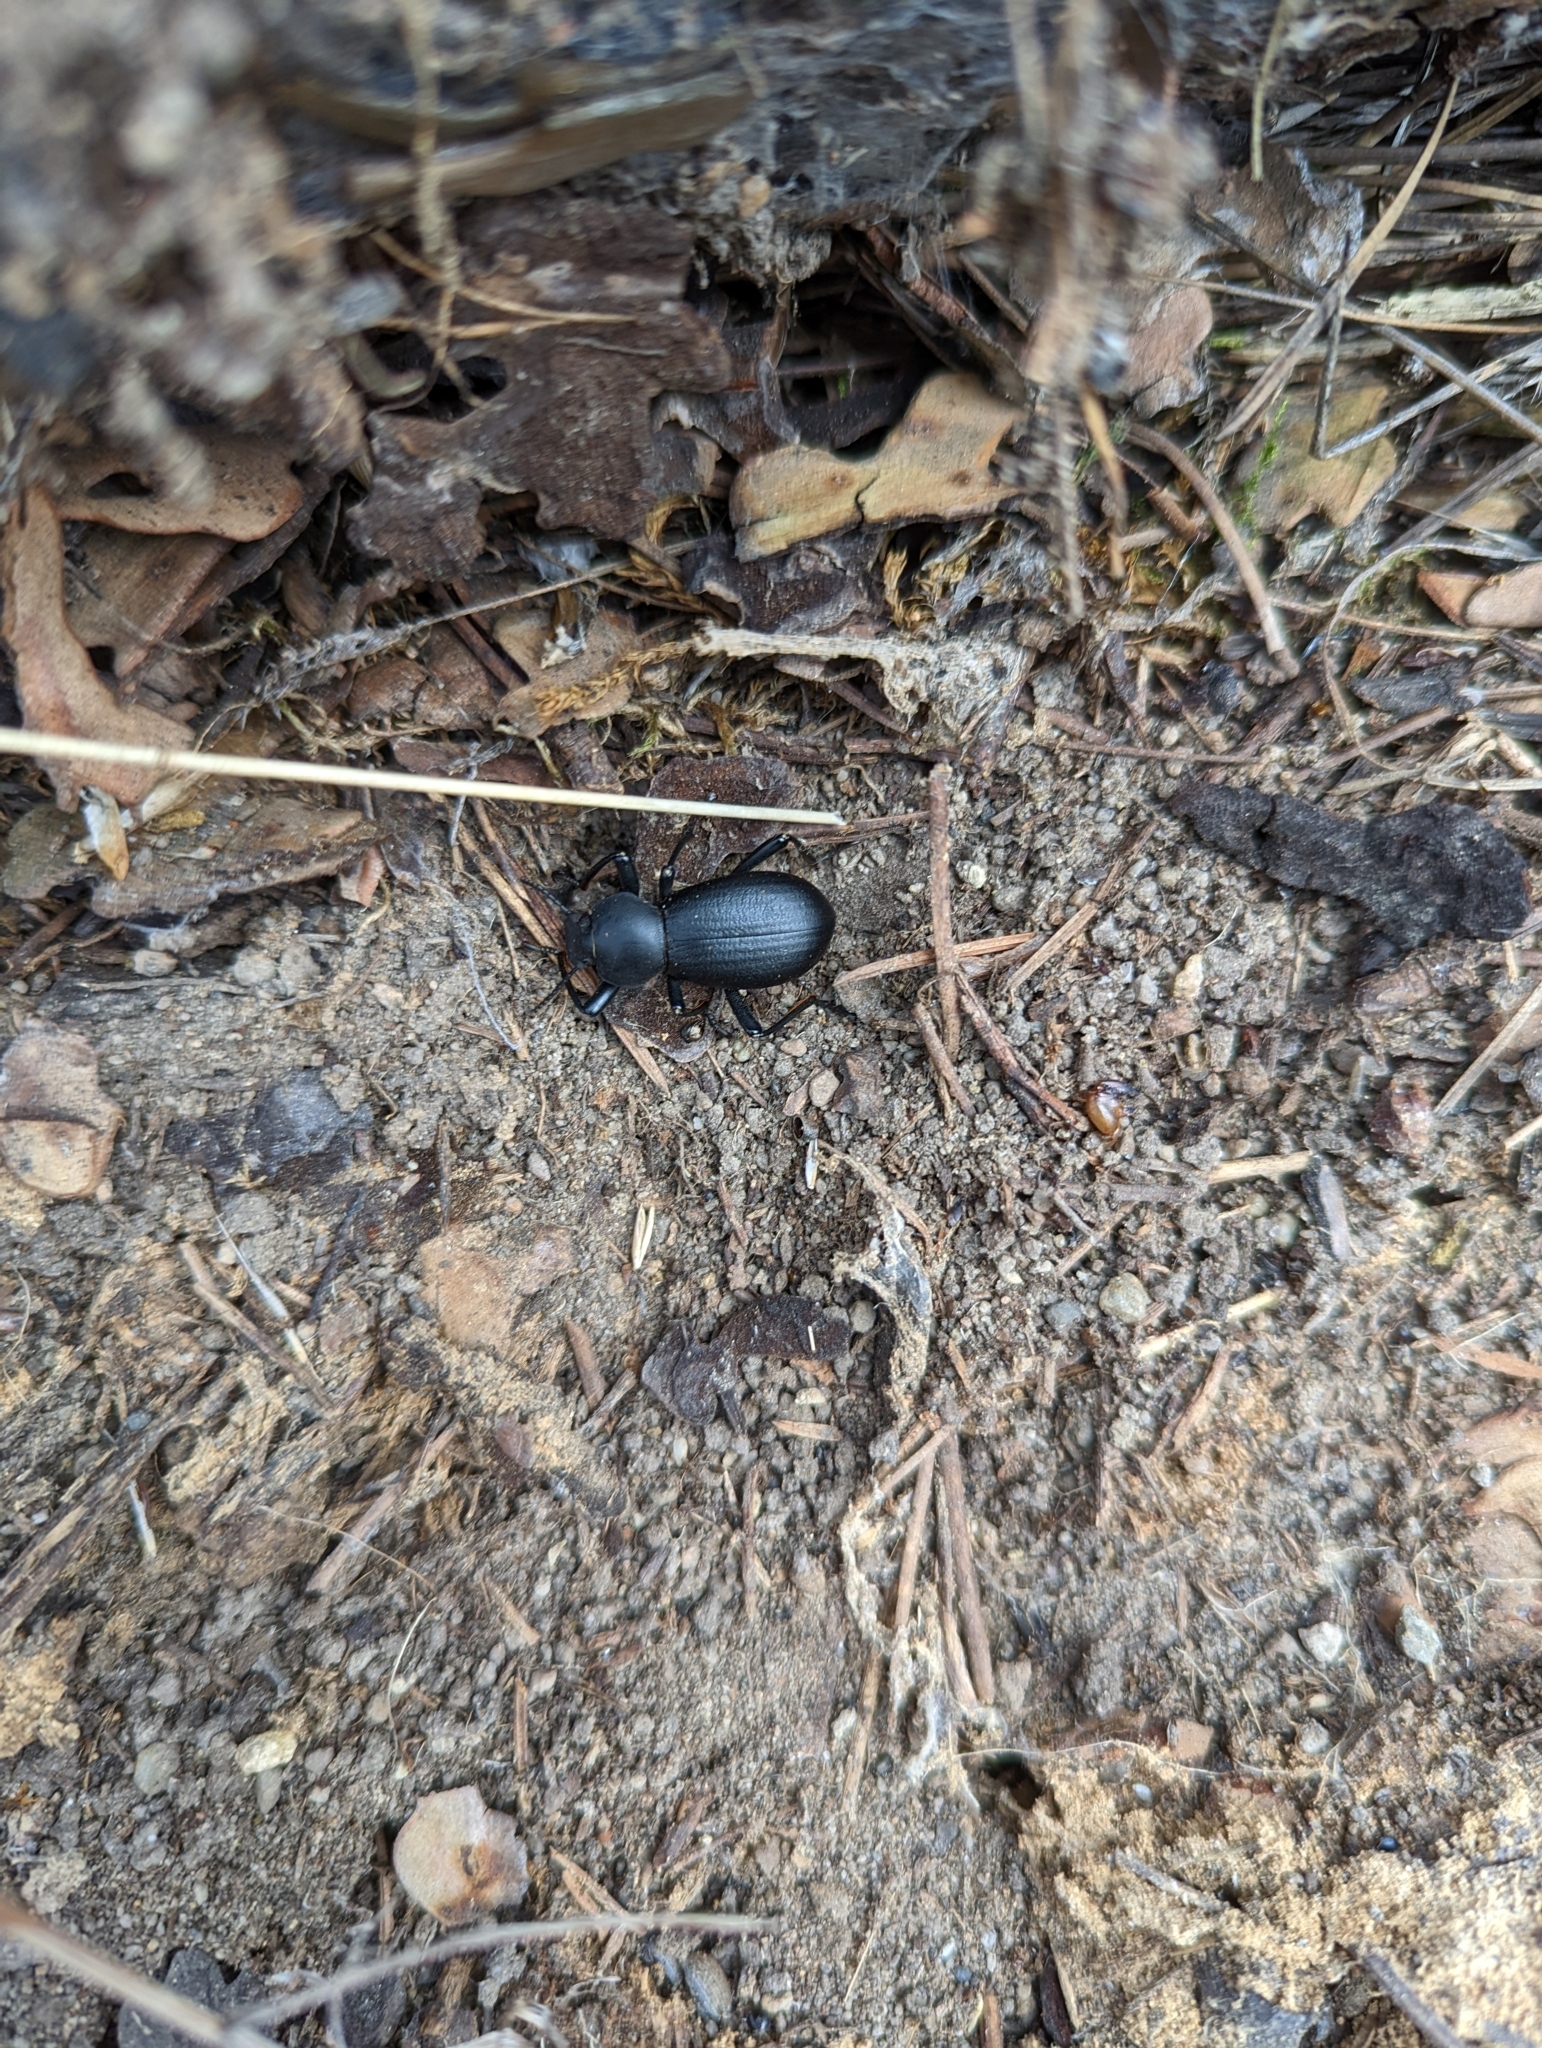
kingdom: Animalia
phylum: Arthropoda
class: Insecta
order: Coleoptera
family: Tenebrionidae
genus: Coelocnemis
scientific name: Coelocnemis dilaticollis
